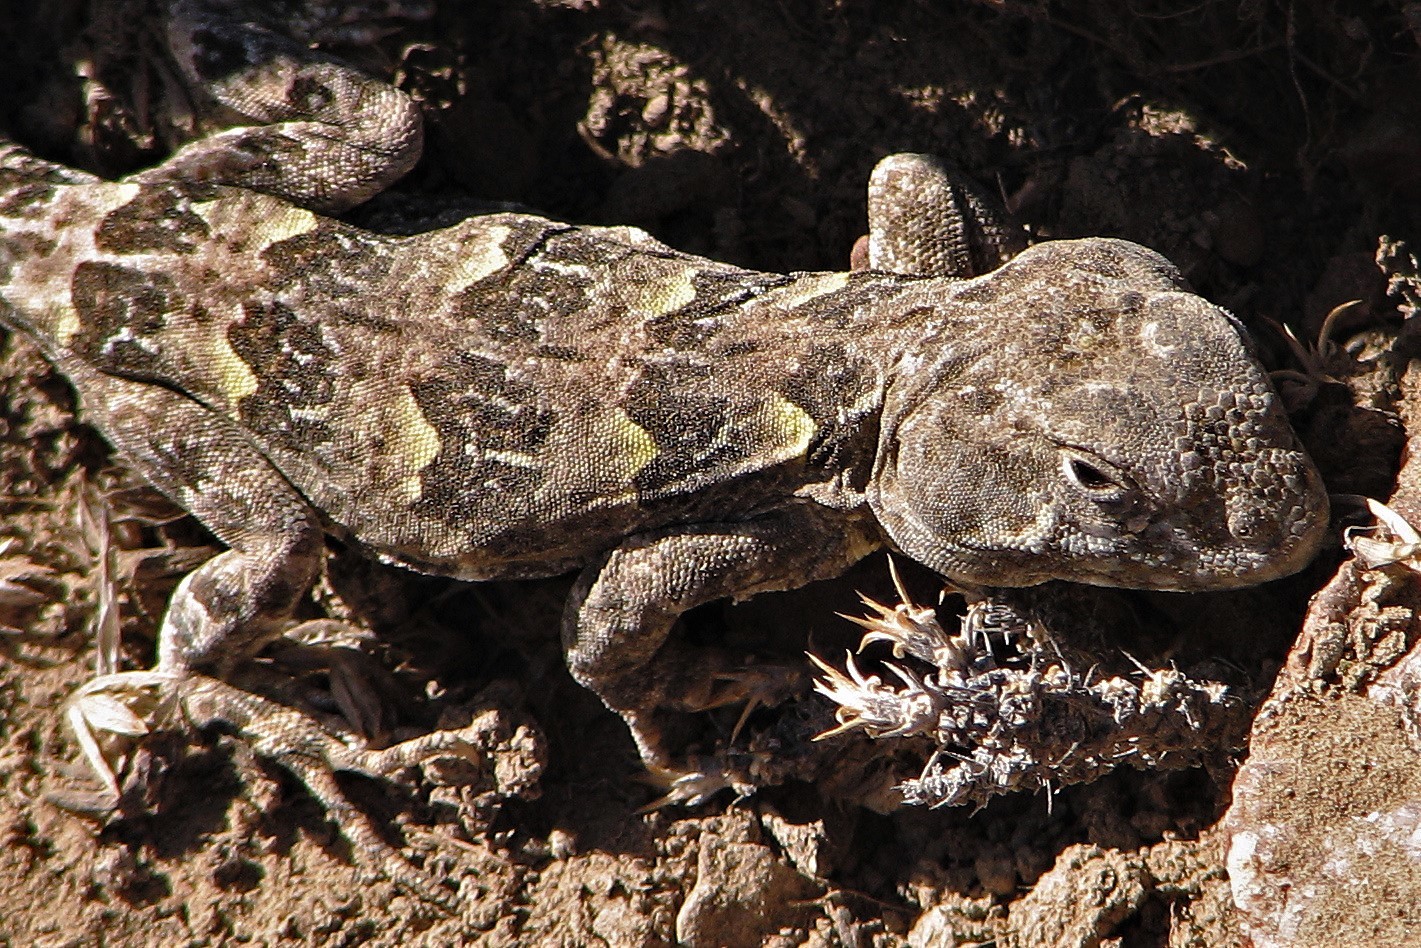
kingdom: Animalia
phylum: Chordata
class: Squamata
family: Leiosauridae
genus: Diplolaemus
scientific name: Diplolaemus bibronii
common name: Bibron's iguana
